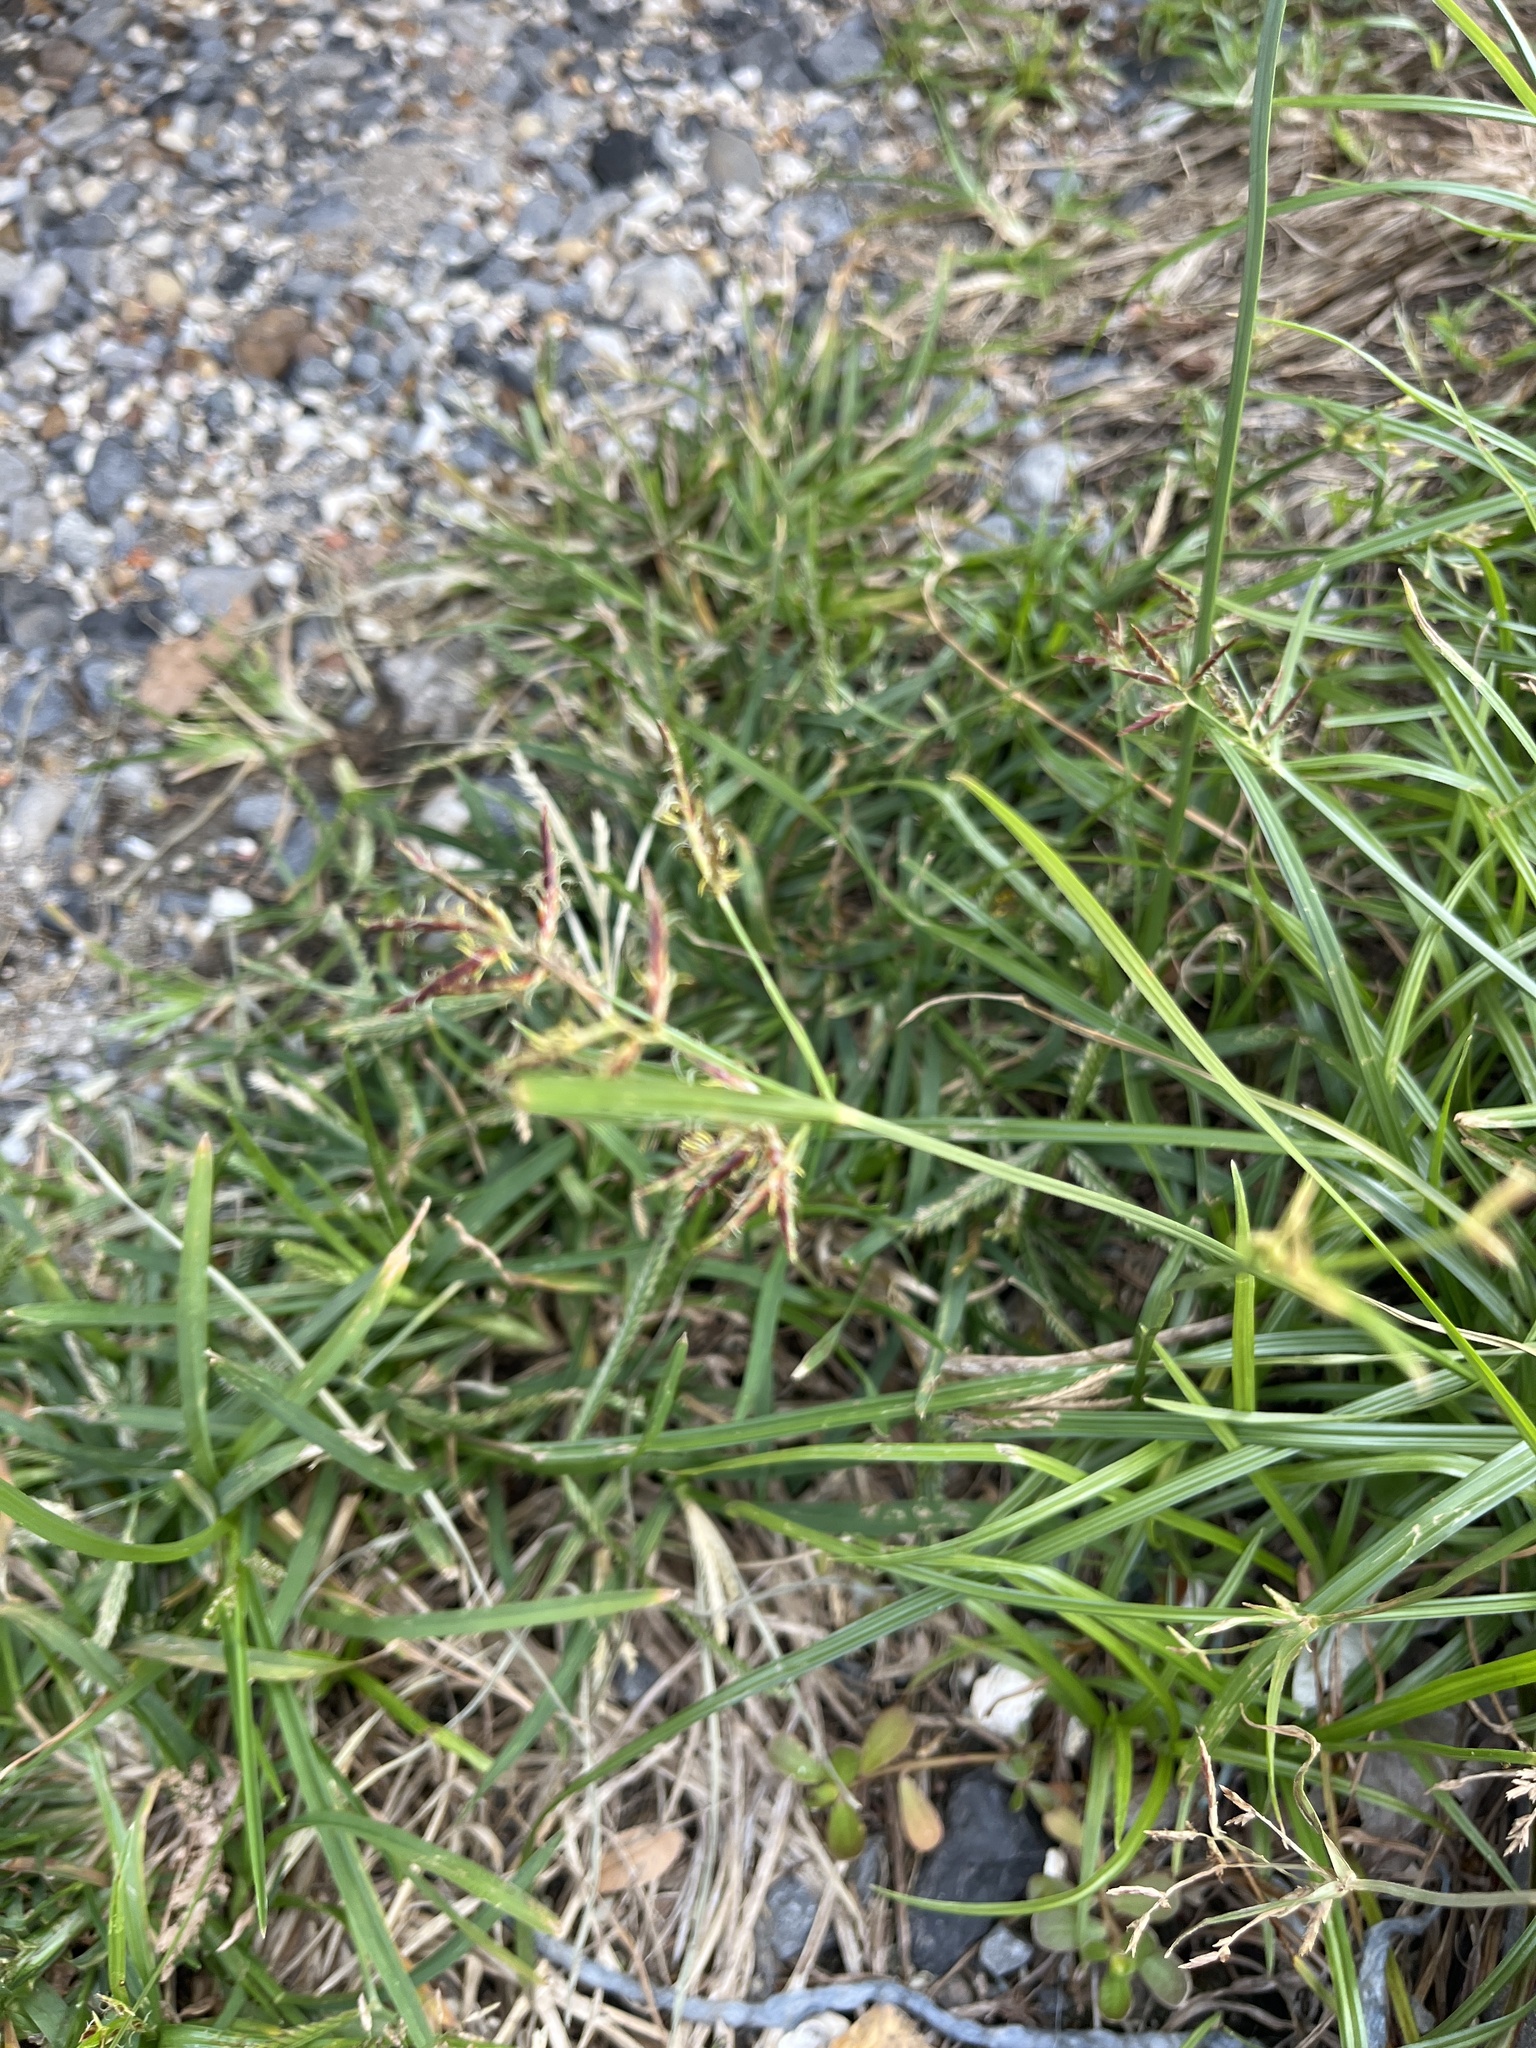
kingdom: Plantae
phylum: Tracheophyta
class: Liliopsida
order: Poales
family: Cyperaceae
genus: Cyperus
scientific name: Cyperus rotundus
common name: Nutgrass
